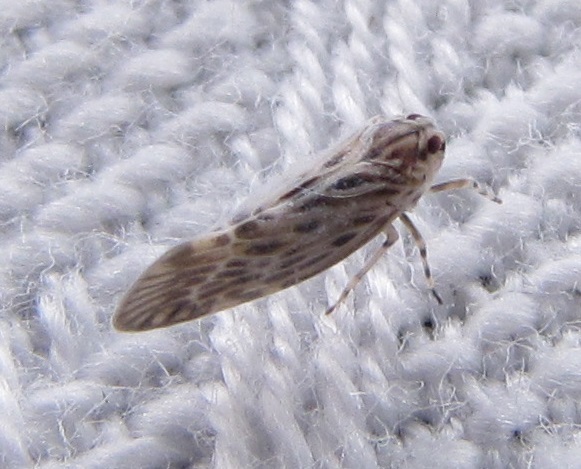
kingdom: Animalia
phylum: Arthropoda
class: Insecta
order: Hemiptera
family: Derbidae
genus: Cedusa
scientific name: Cedusa maculata
